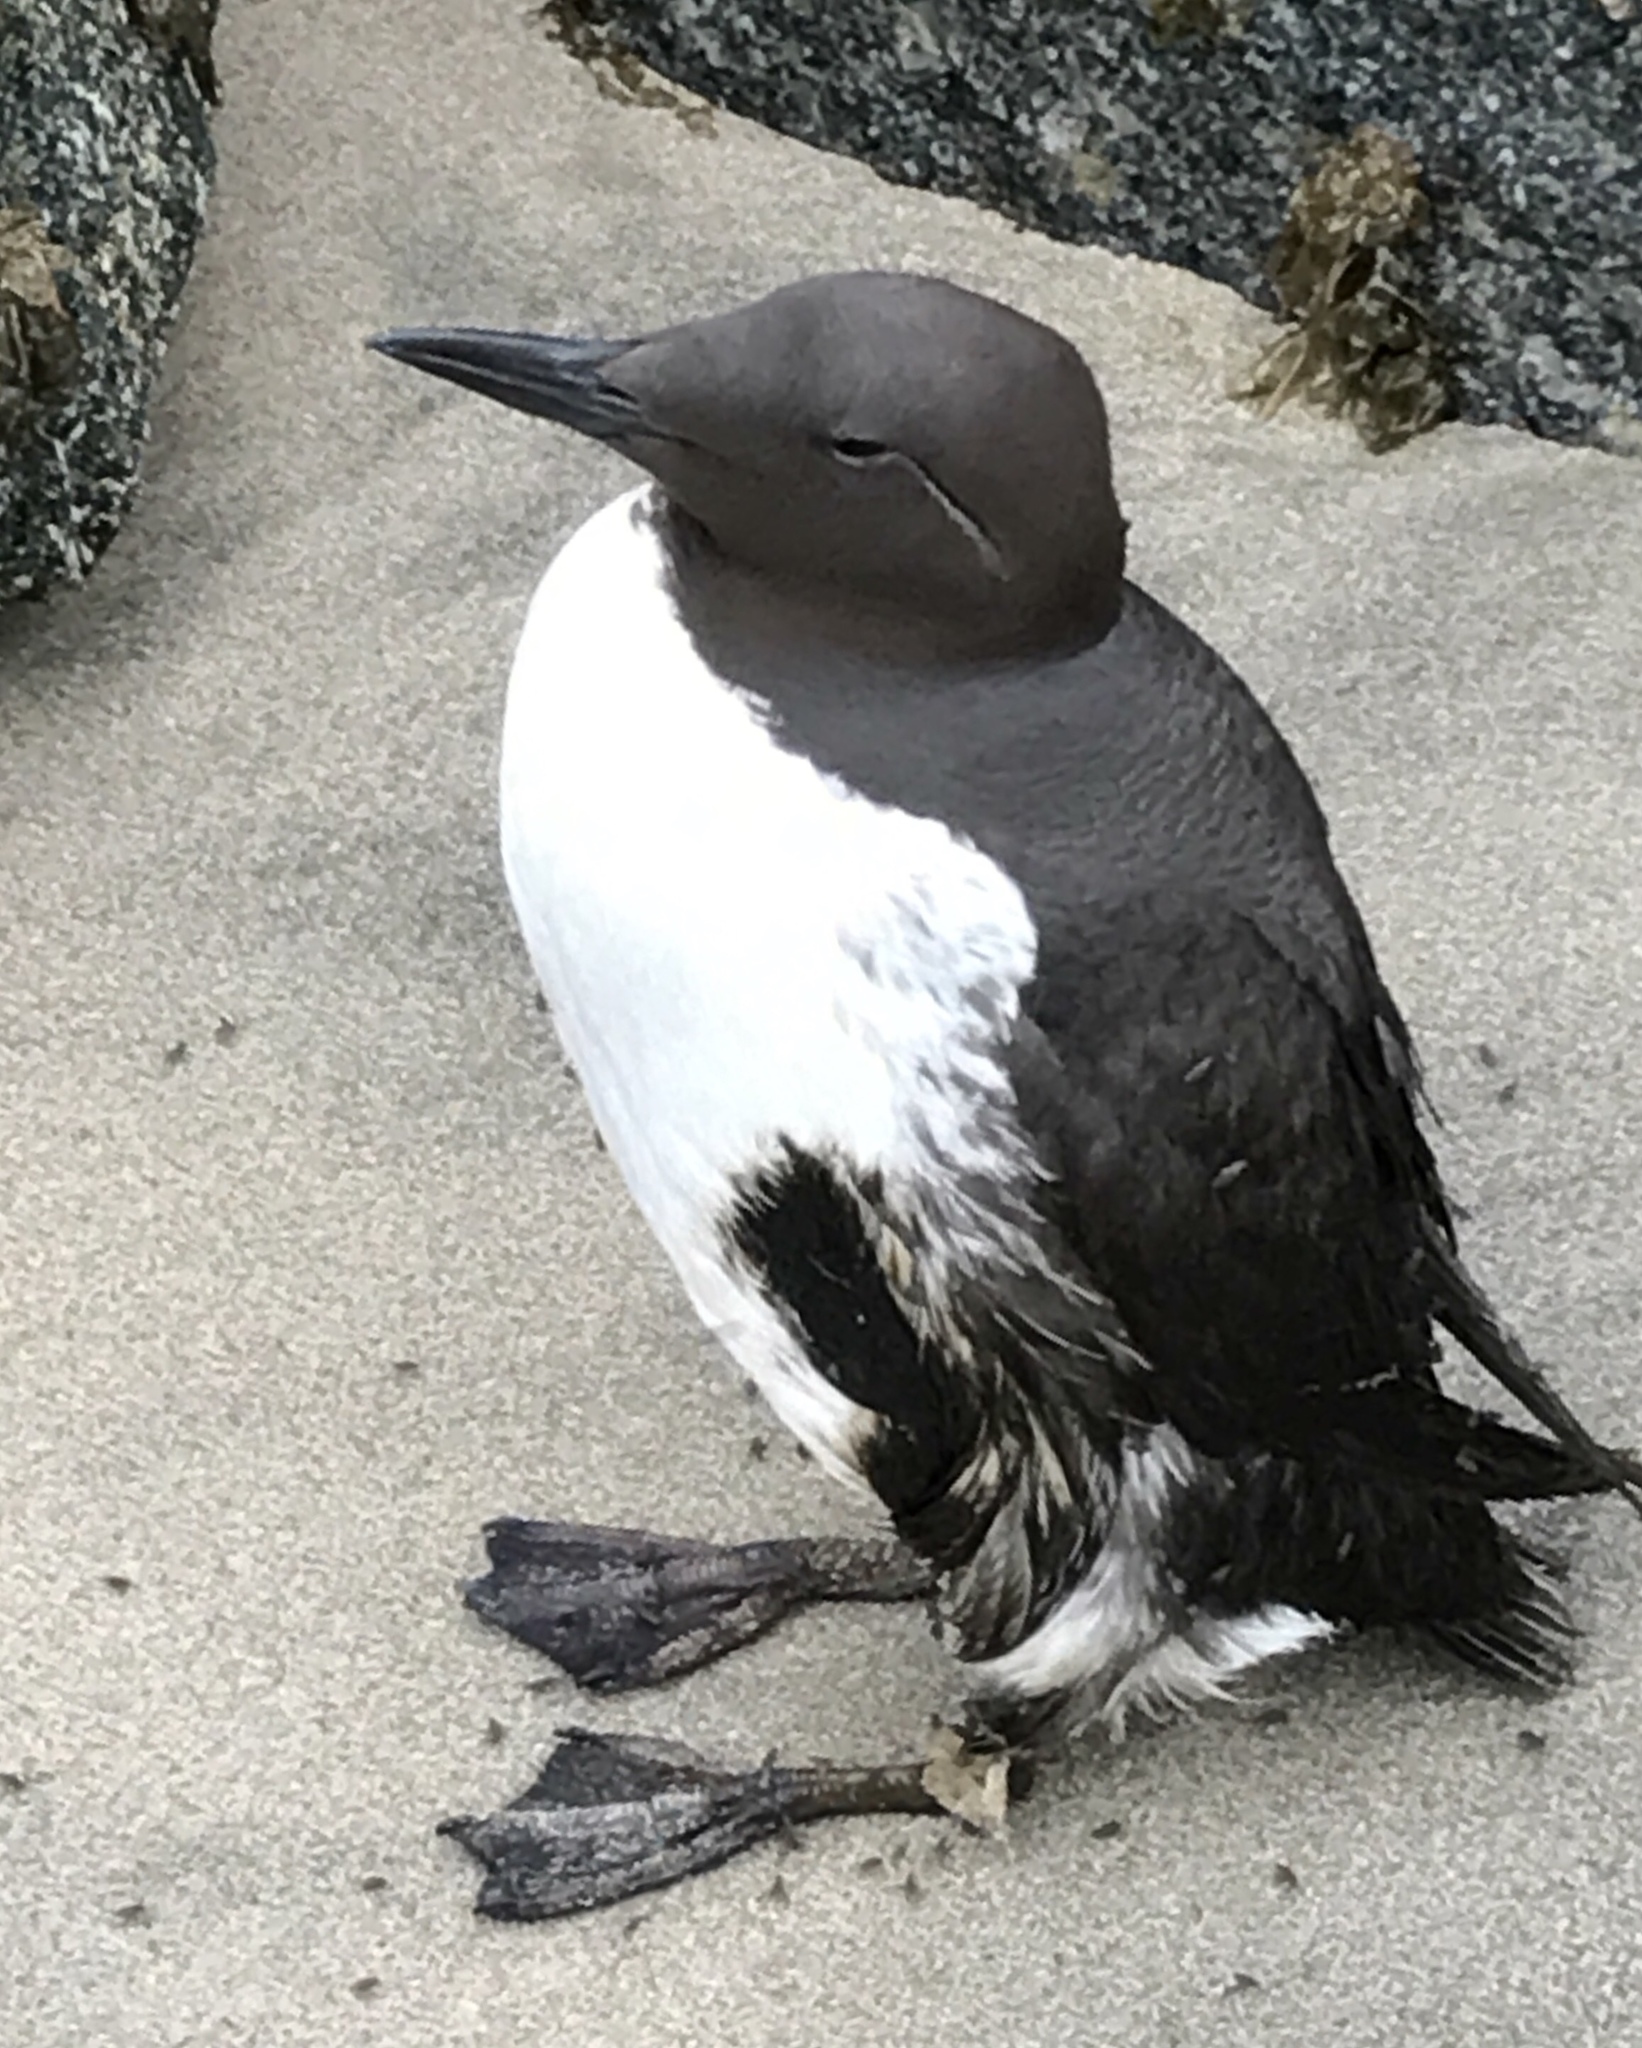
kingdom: Animalia
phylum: Chordata
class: Aves
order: Charadriiformes
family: Alcidae
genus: Uria
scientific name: Uria aalge
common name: Common murre
